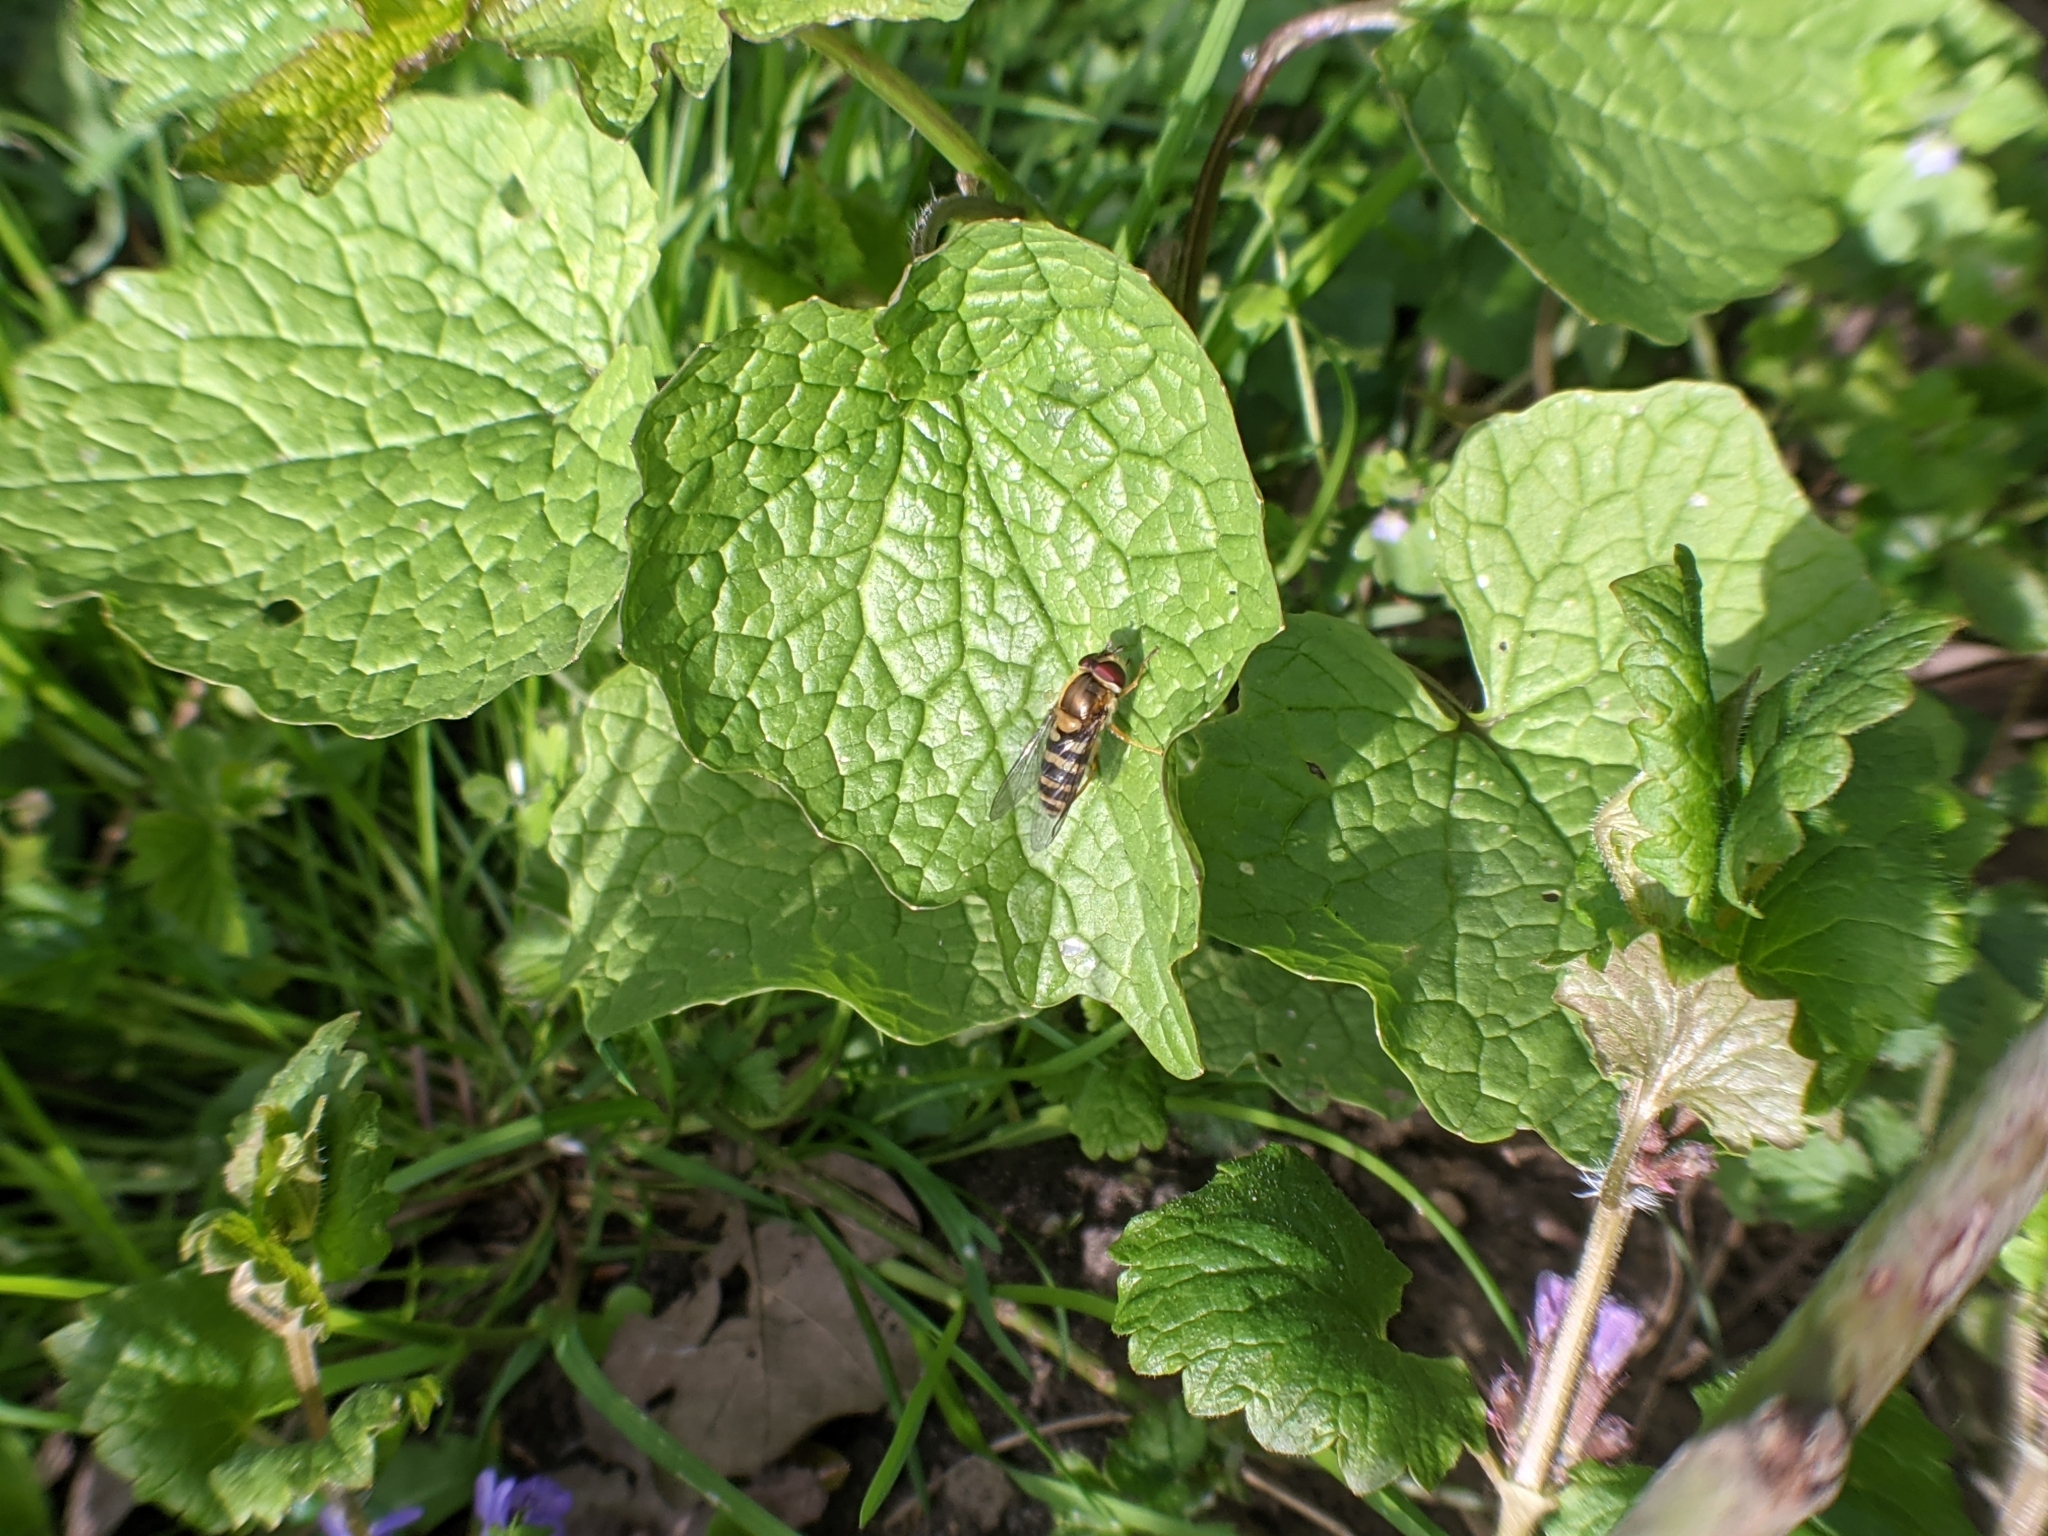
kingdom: Animalia
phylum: Arthropoda
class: Insecta
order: Diptera
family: Syrphidae
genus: Syrphus
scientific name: Syrphus
